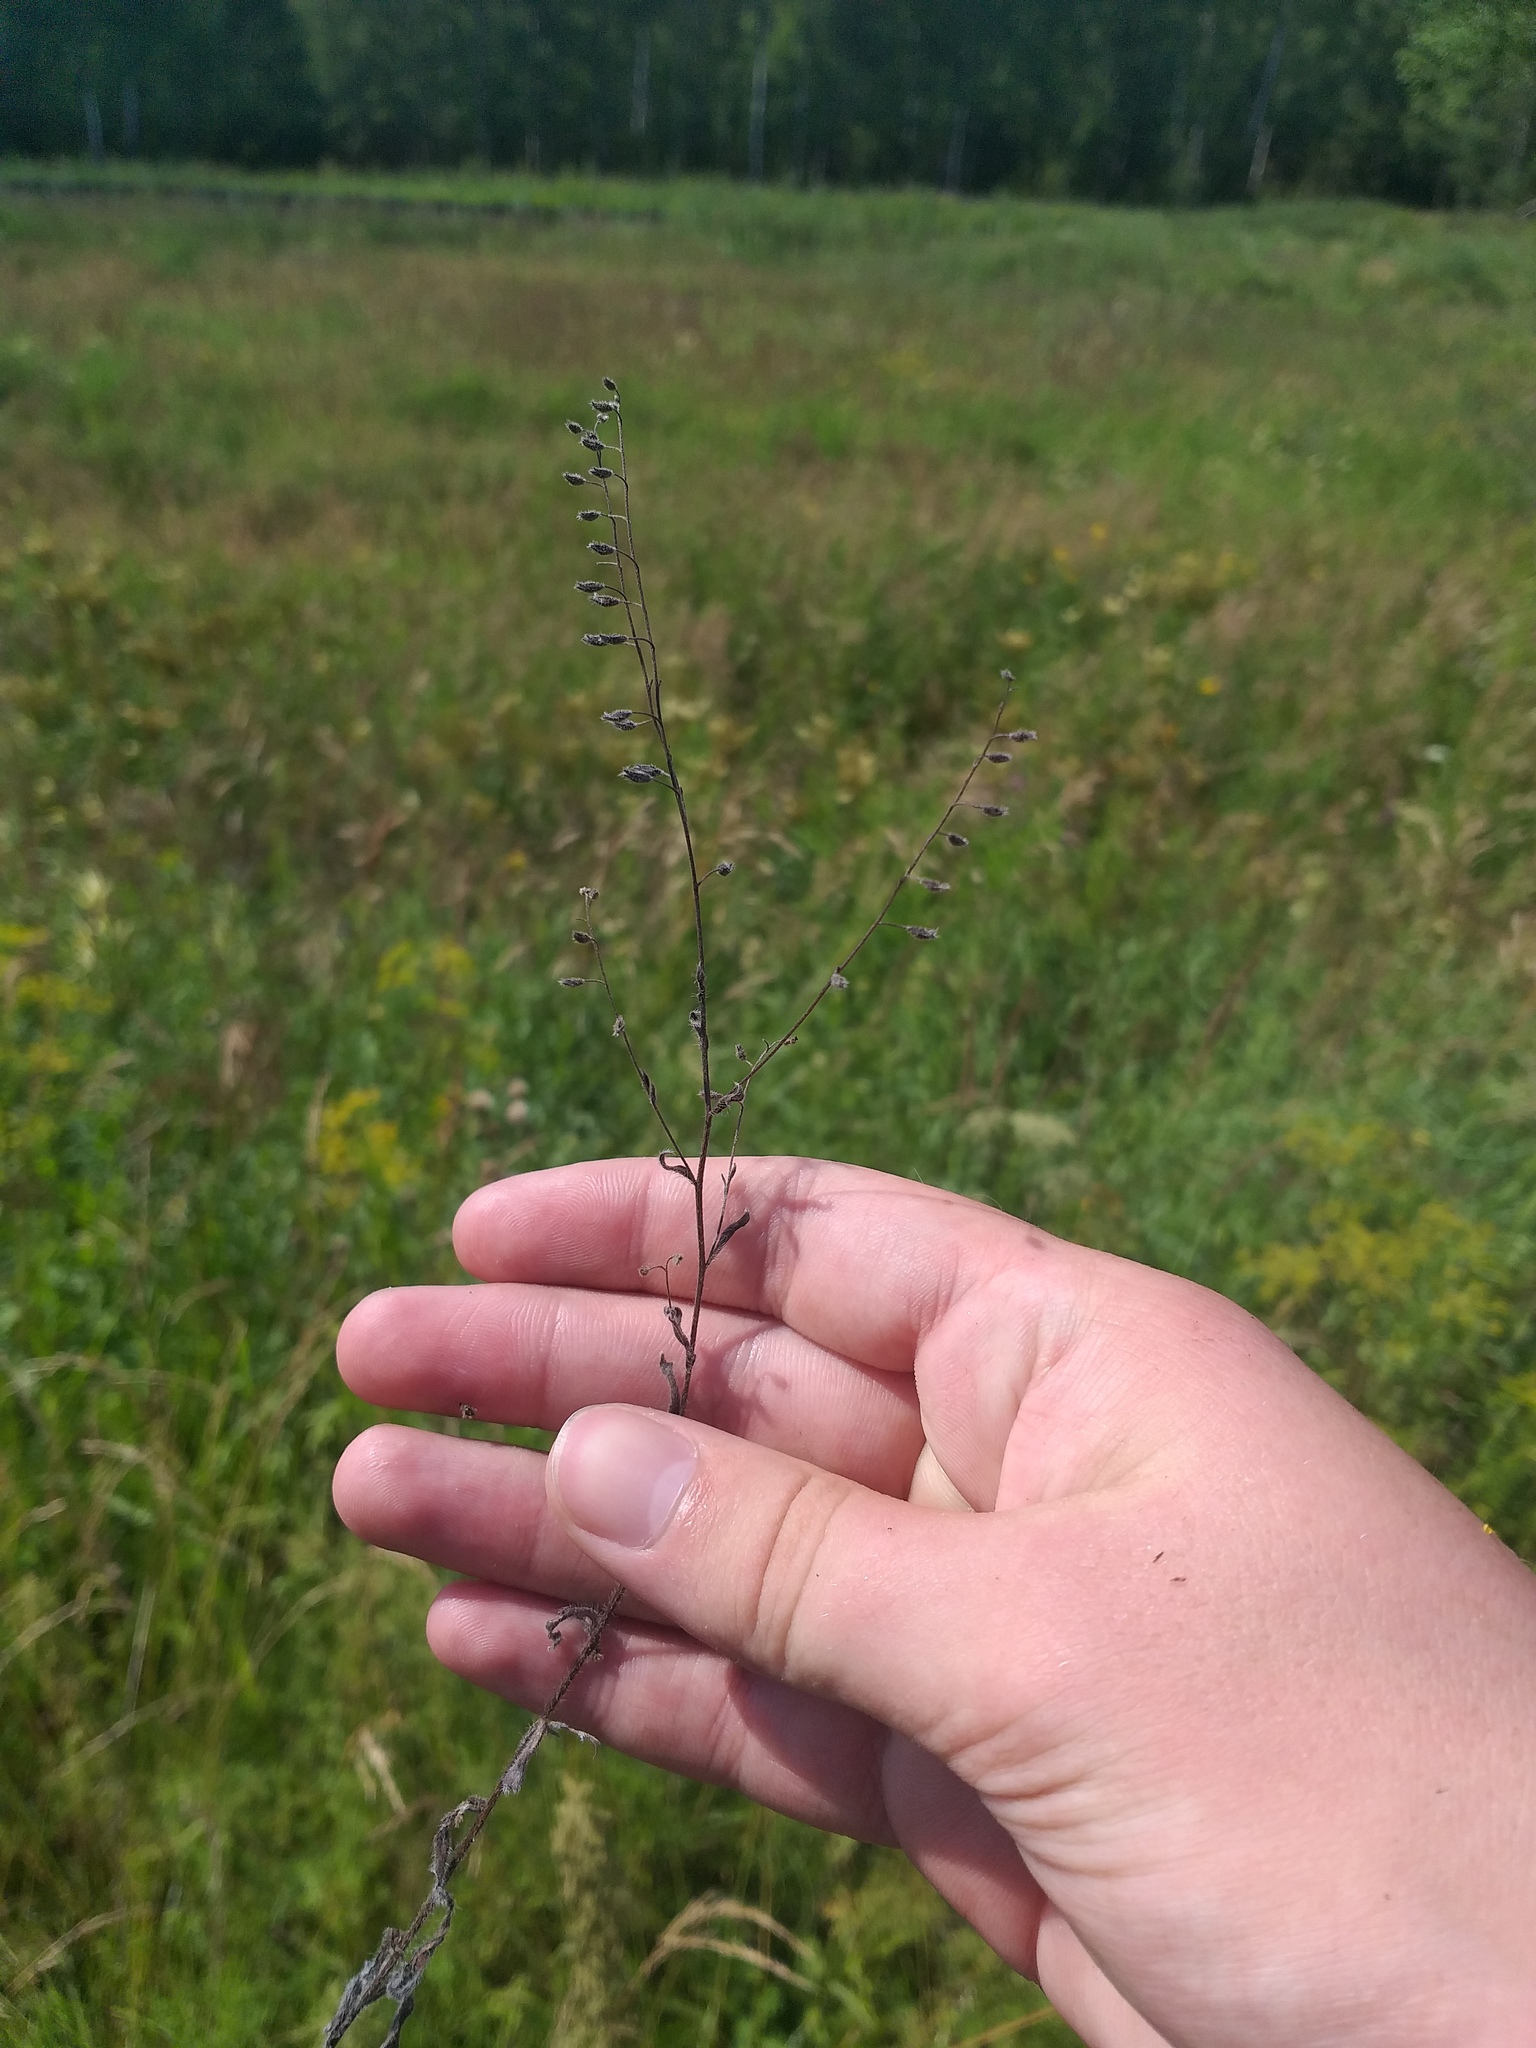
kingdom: Plantae
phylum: Tracheophyta
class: Magnoliopsida
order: Boraginales
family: Boraginaceae
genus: Myosotis
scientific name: Myosotis arvensis
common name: Field forget-me-not
